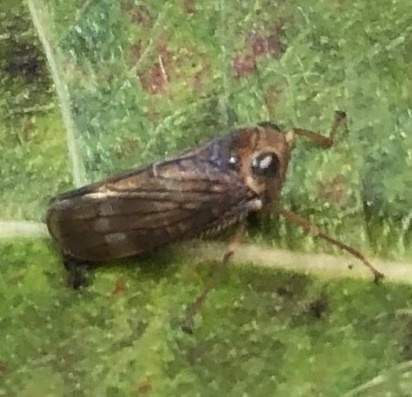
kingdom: Animalia
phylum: Arthropoda
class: Insecta
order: Hemiptera
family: Cicadellidae
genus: Jikradia
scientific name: Jikradia olitoria
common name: Coppery leafhopper
